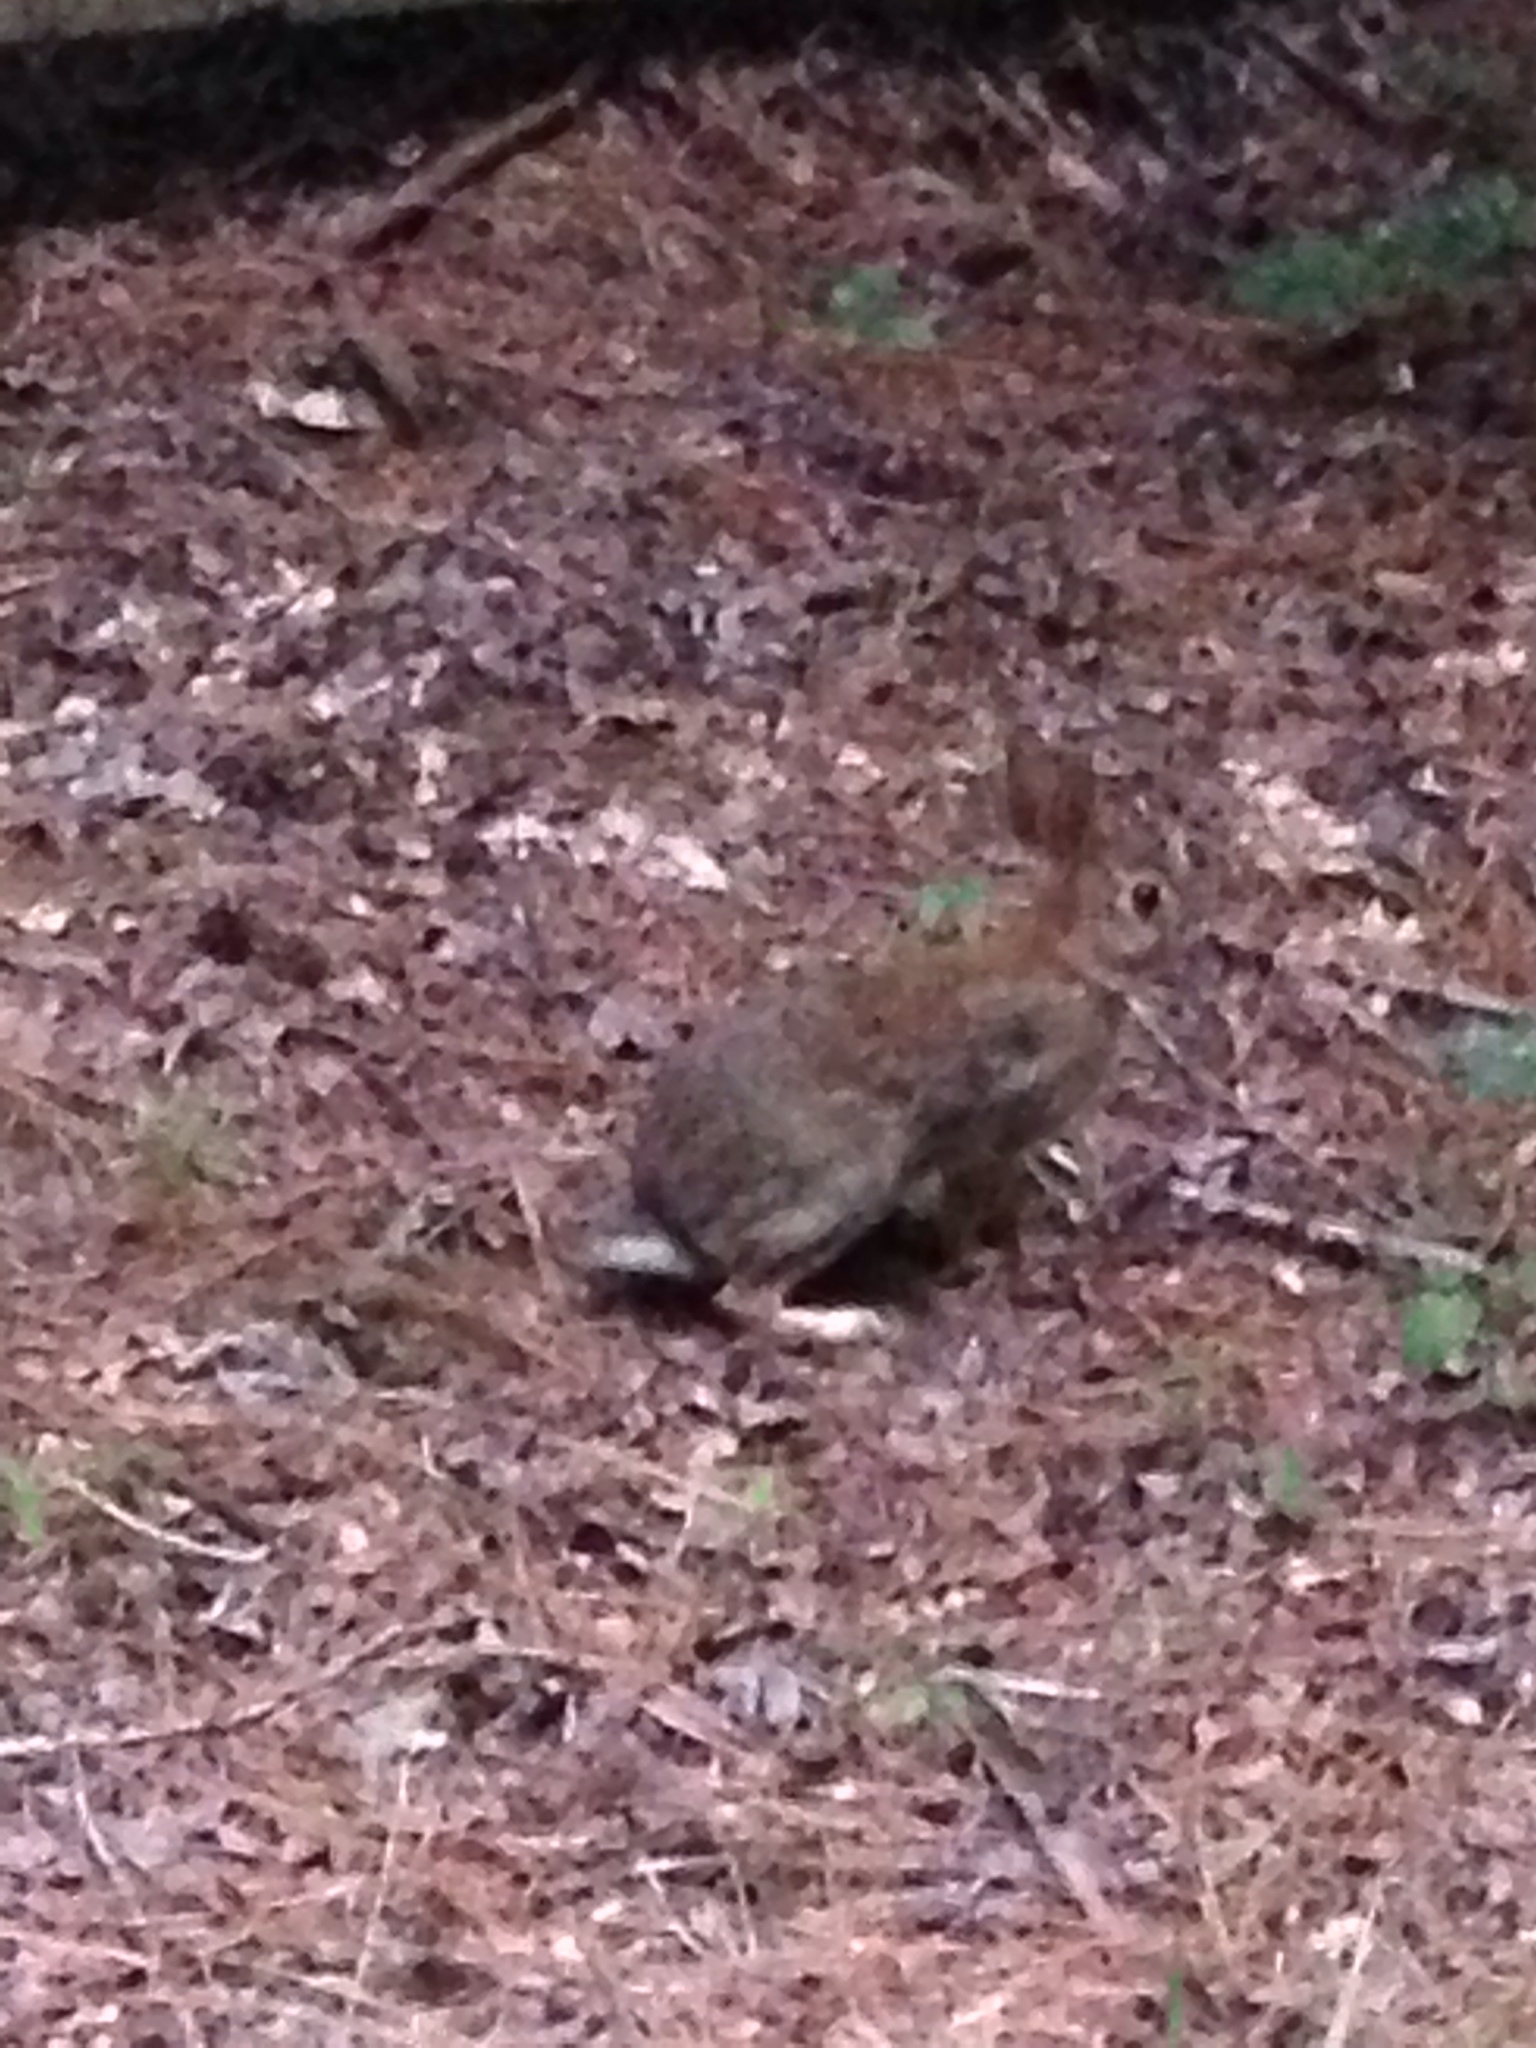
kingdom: Animalia
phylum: Chordata
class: Mammalia
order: Lagomorpha
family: Leporidae
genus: Sylvilagus
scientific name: Sylvilagus floridanus
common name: Eastern cottontail
